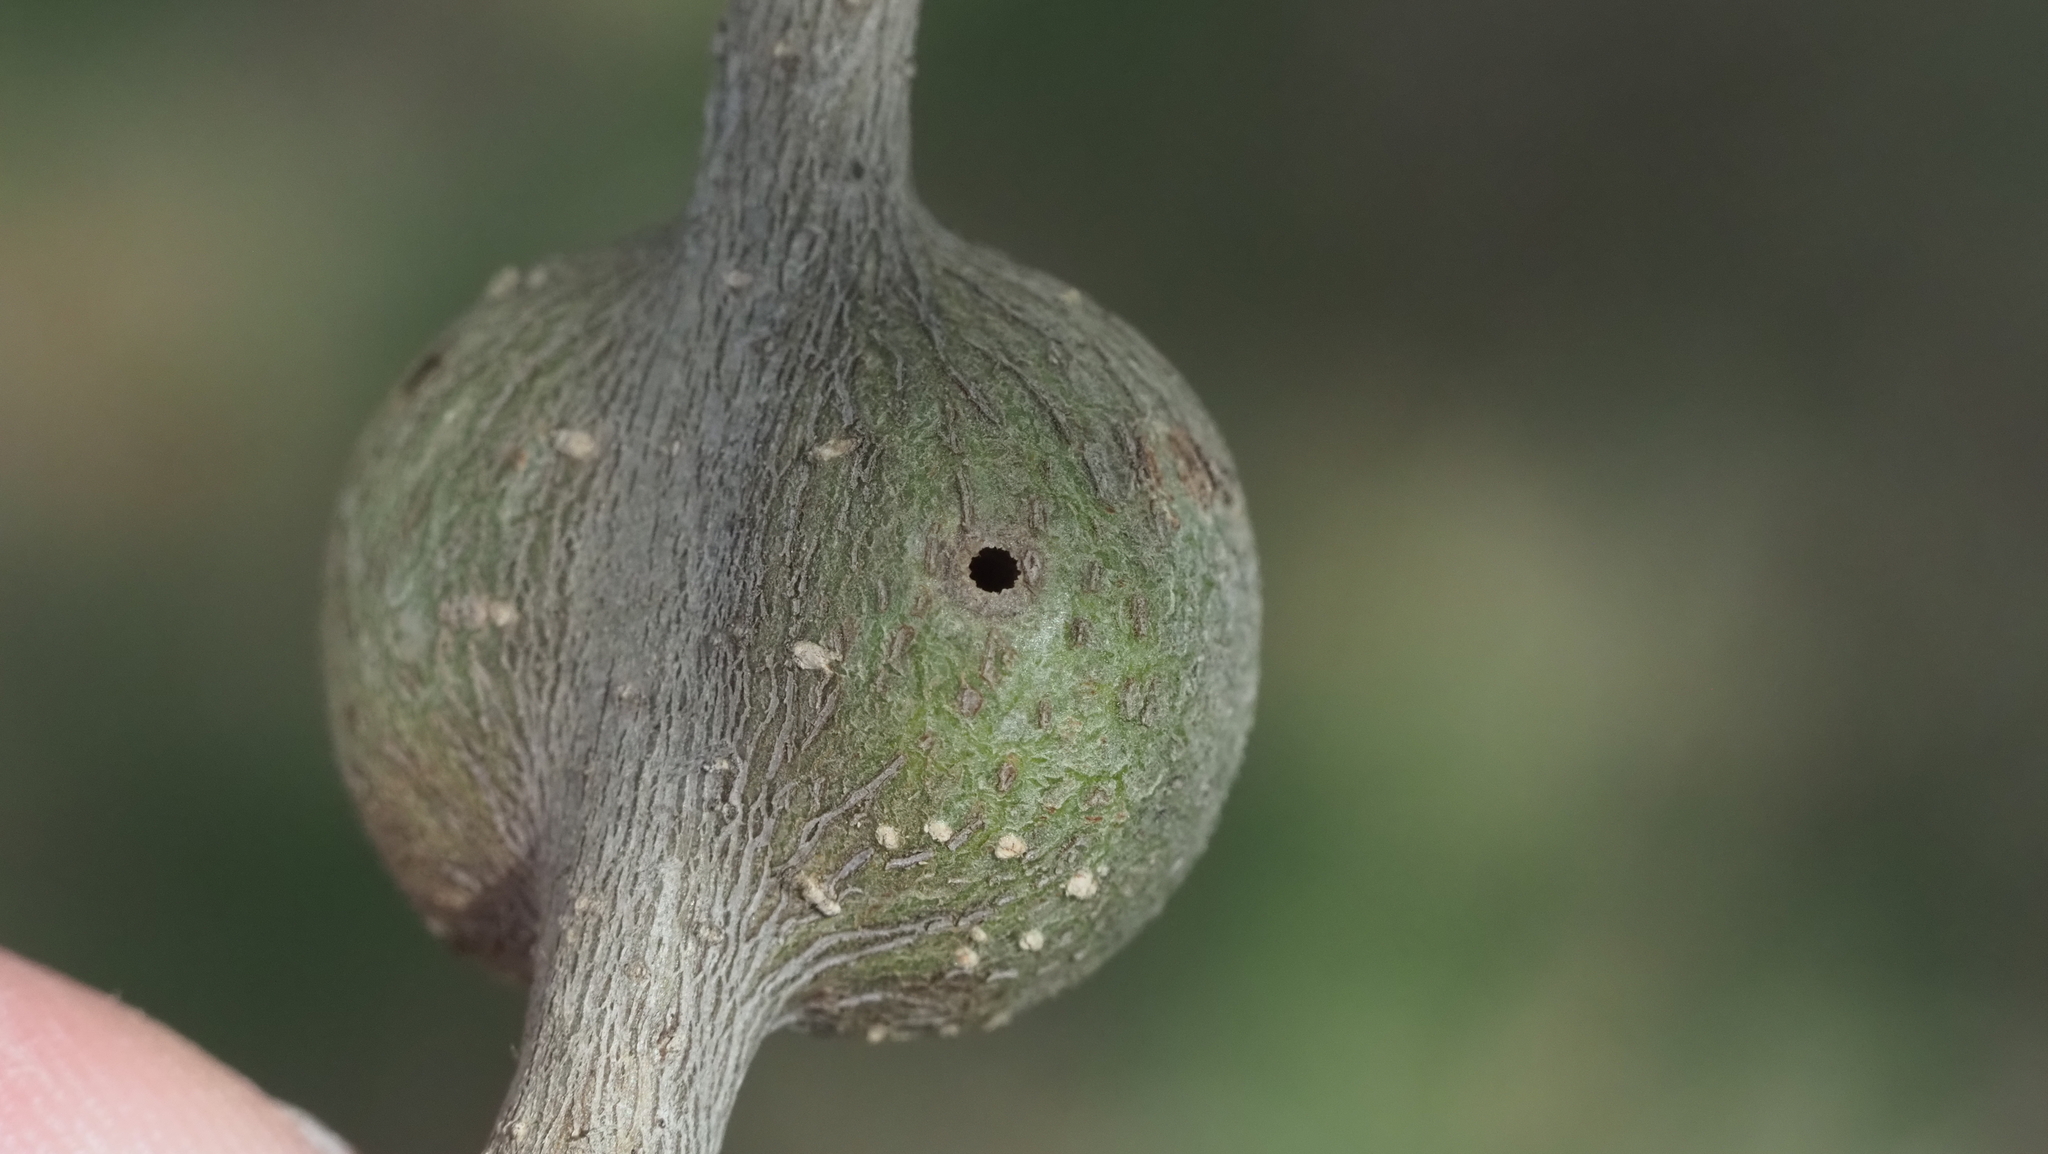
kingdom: Animalia
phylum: Arthropoda
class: Insecta
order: Hymenoptera
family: Cynipidae
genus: Callirhytis
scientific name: Callirhytis
